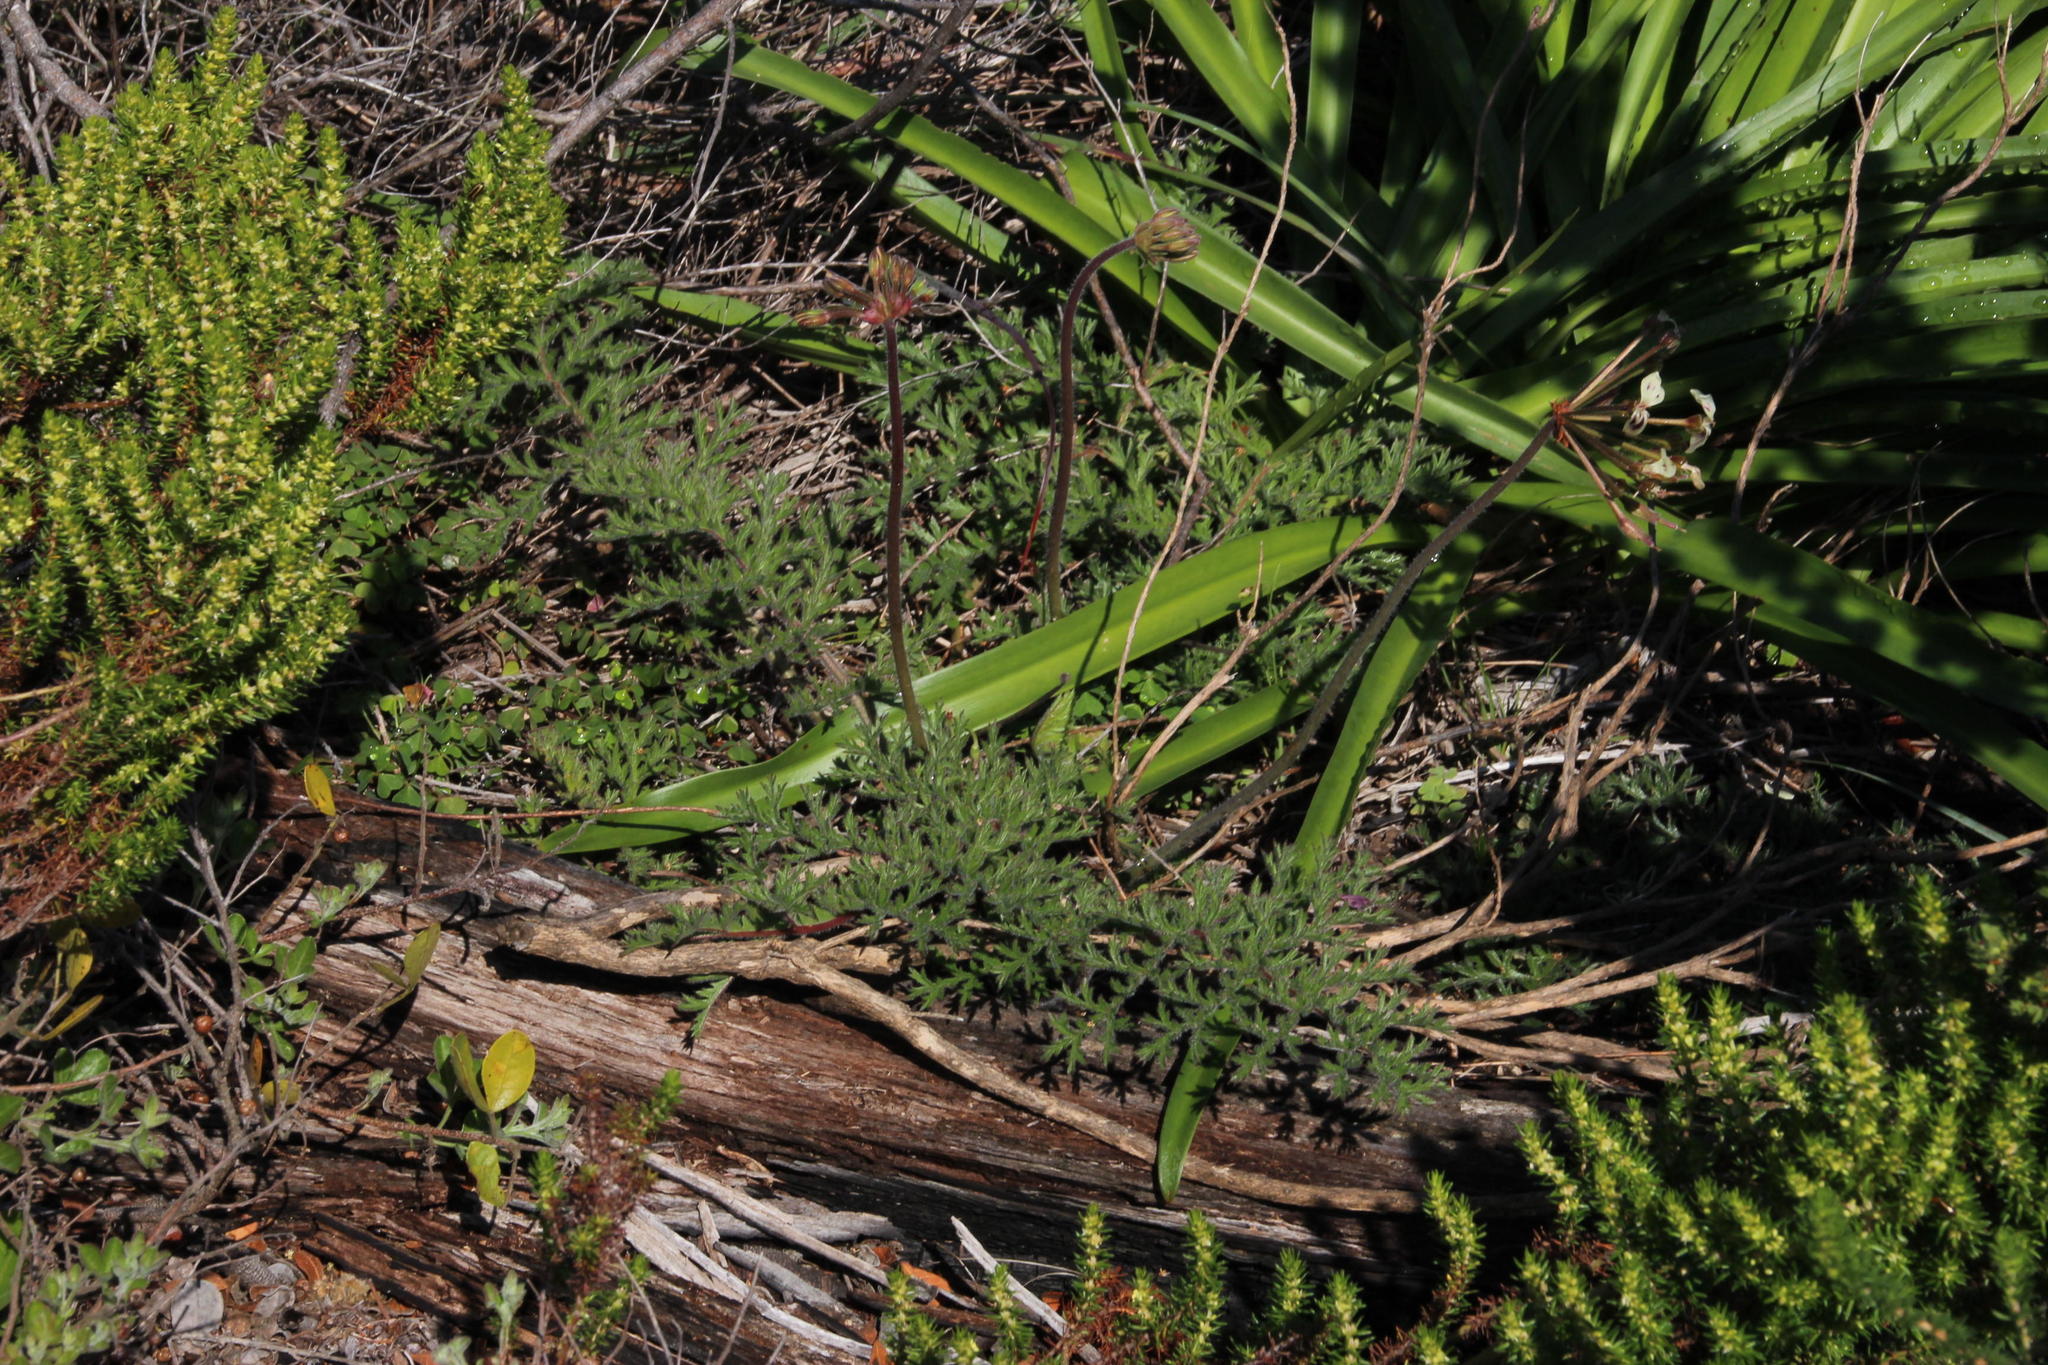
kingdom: Plantae
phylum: Tracheophyta
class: Magnoliopsida
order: Geraniales
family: Geraniaceae
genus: Pelargonium
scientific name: Pelargonium triste
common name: Night-scent pelargonium
